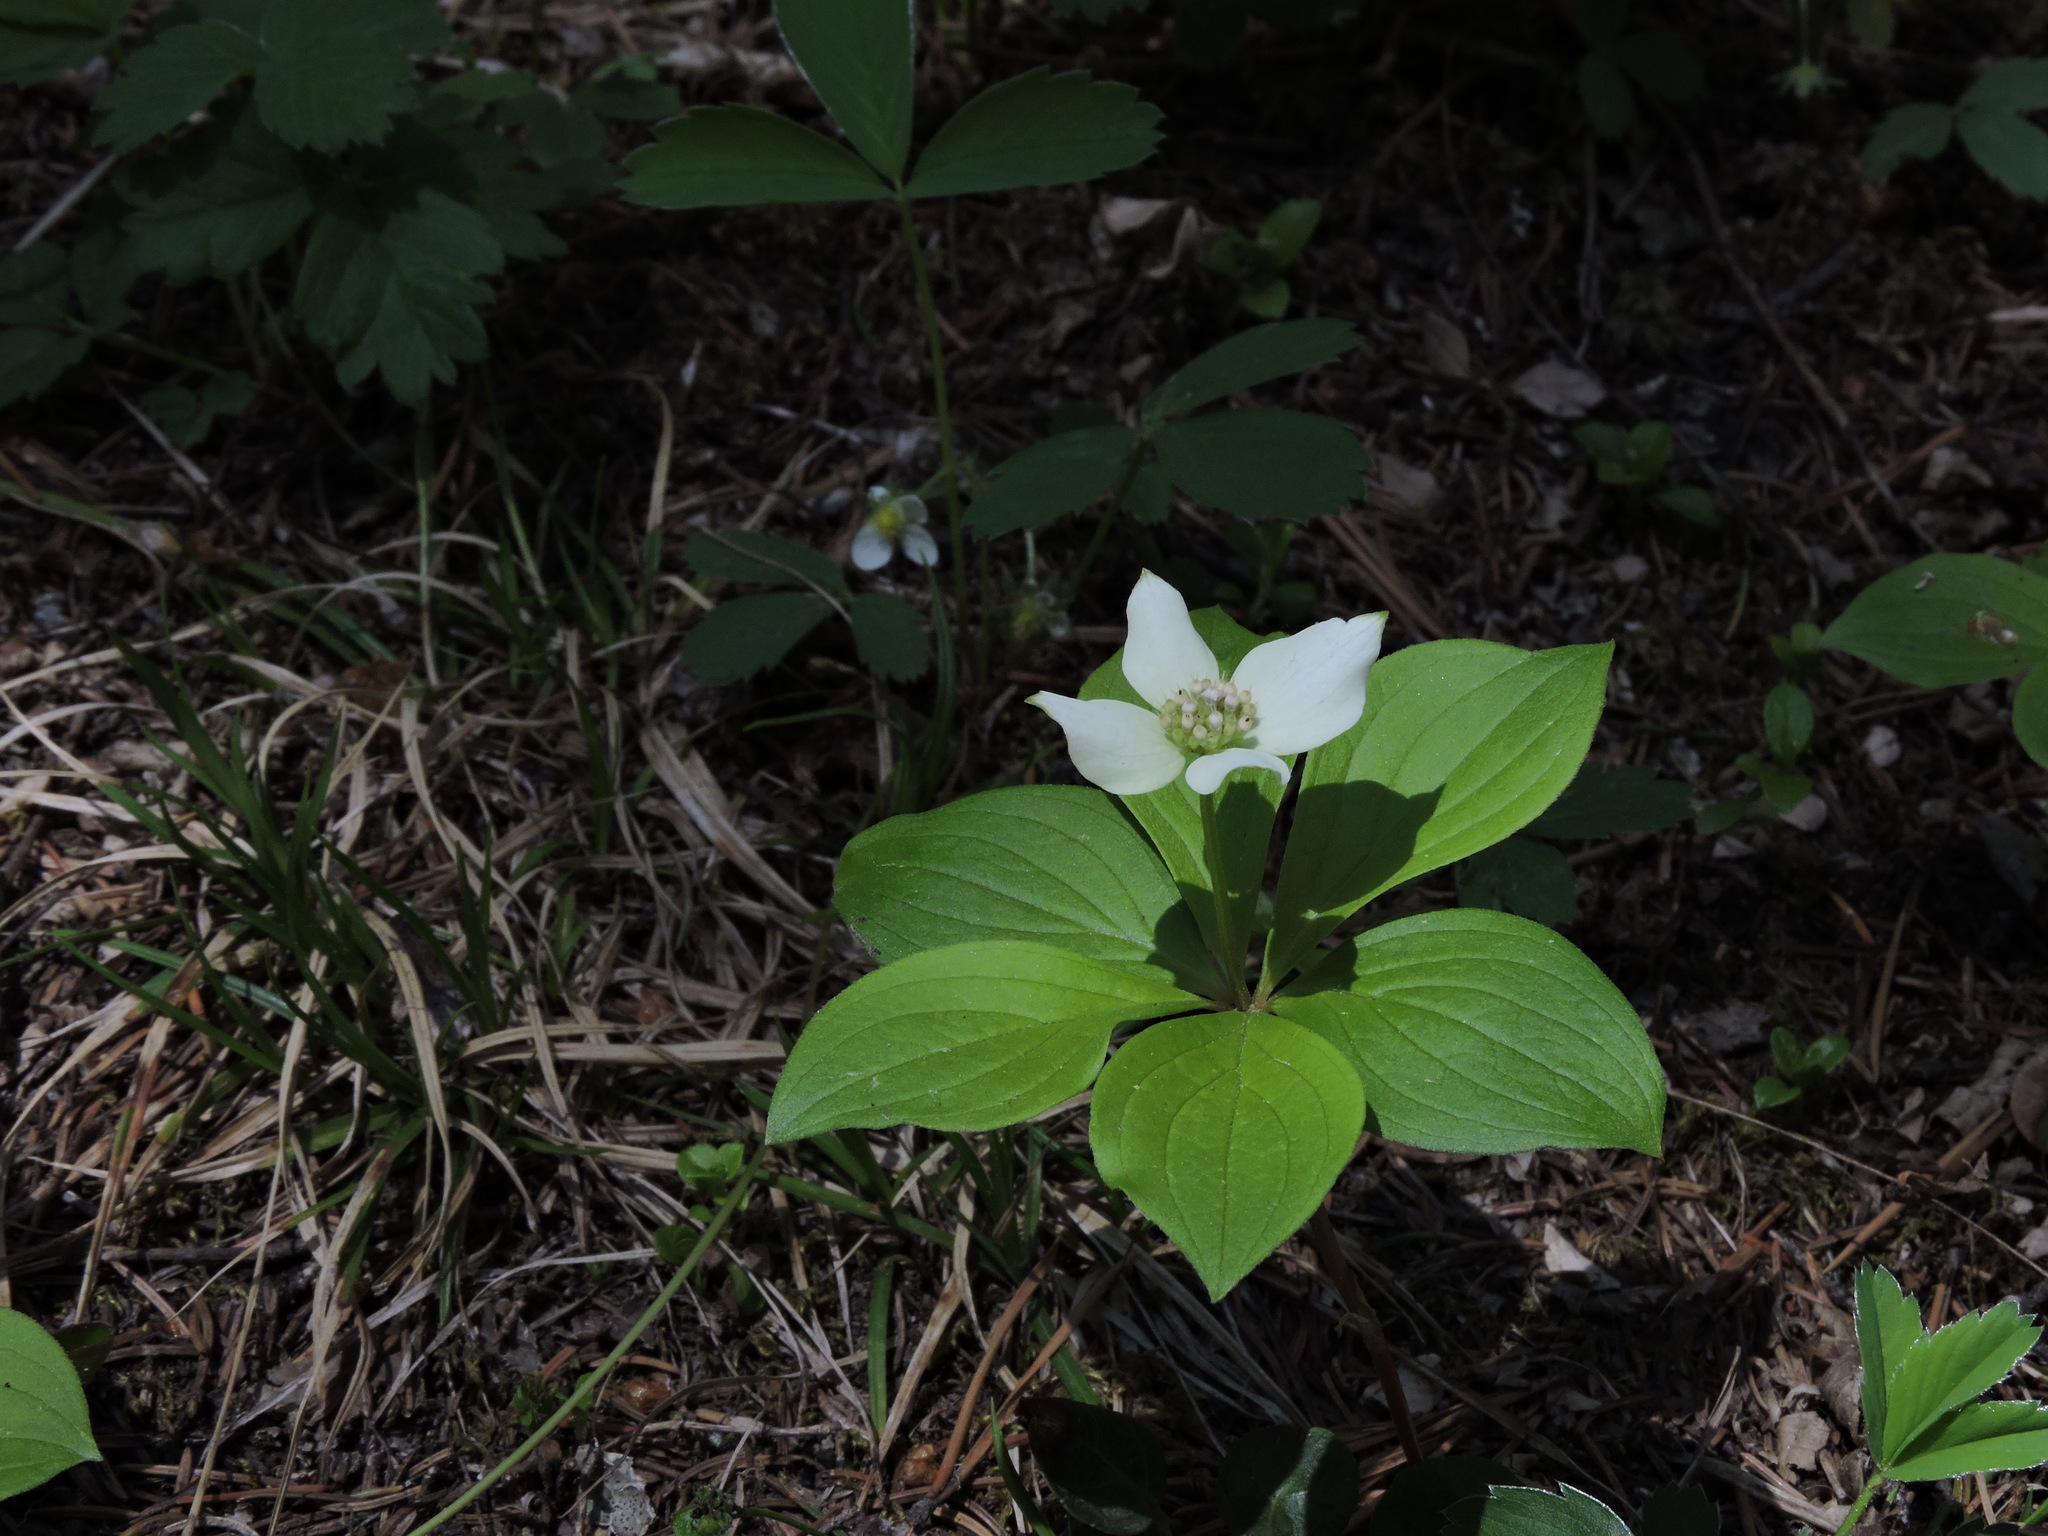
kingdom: Plantae
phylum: Tracheophyta
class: Magnoliopsida
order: Cornales
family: Cornaceae
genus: Cornus
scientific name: Cornus canadensis
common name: Creeping dogwood
